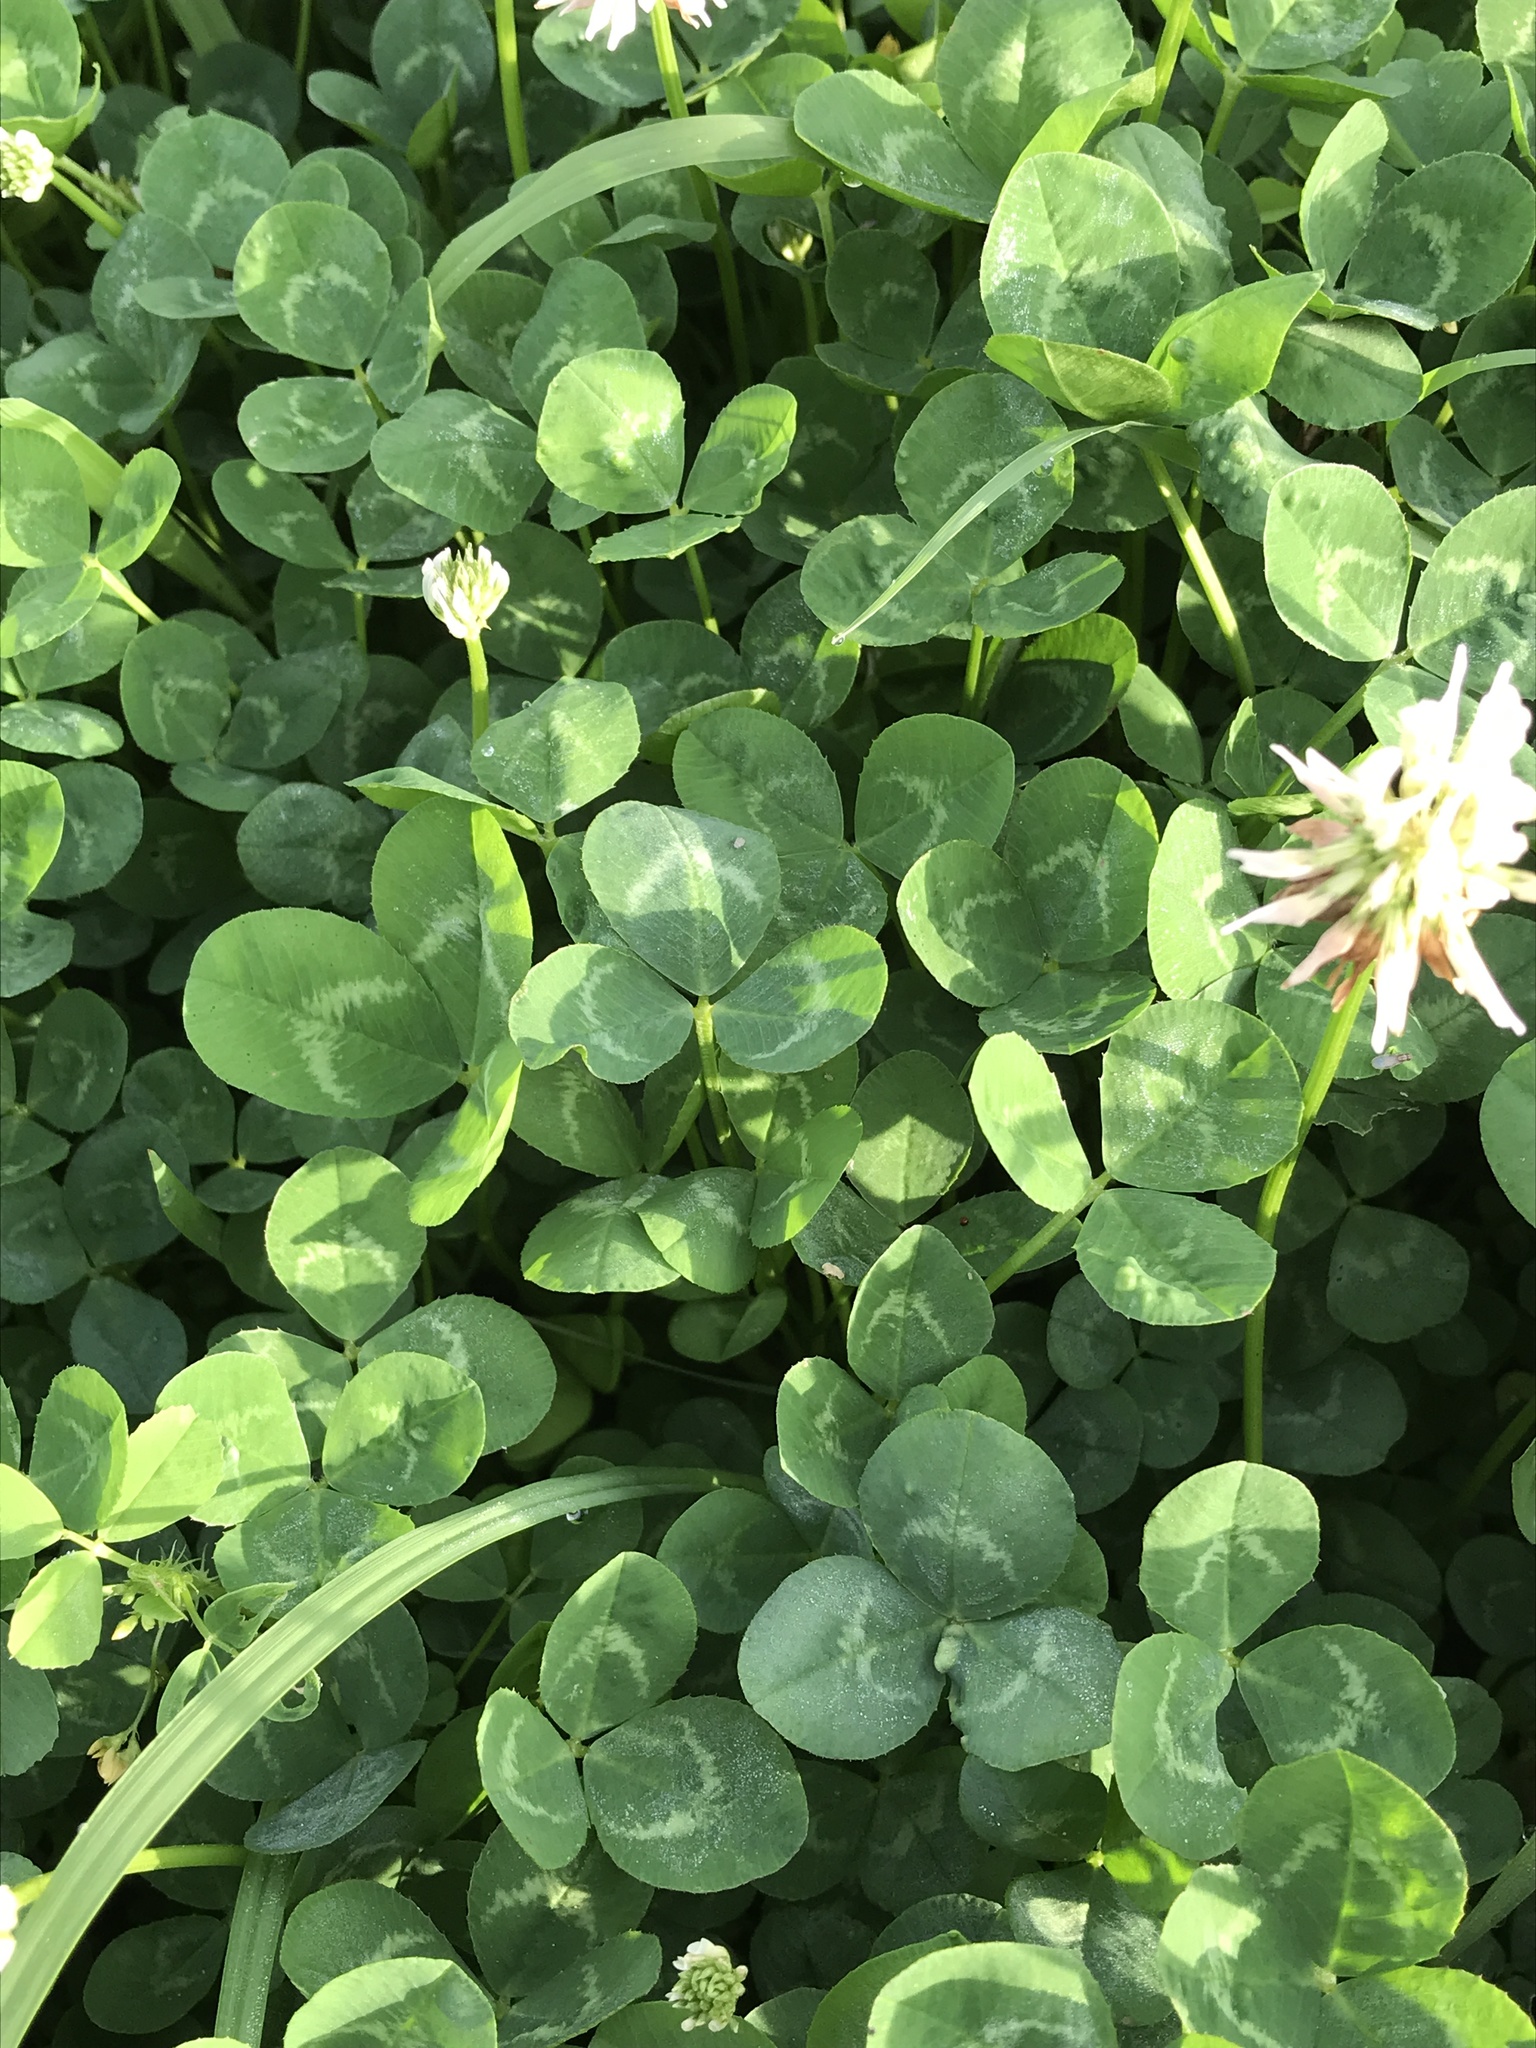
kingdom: Plantae
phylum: Tracheophyta
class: Magnoliopsida
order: Fabales
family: Fabaceae
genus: Trifolium
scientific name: Trifolium repens
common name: White clover
